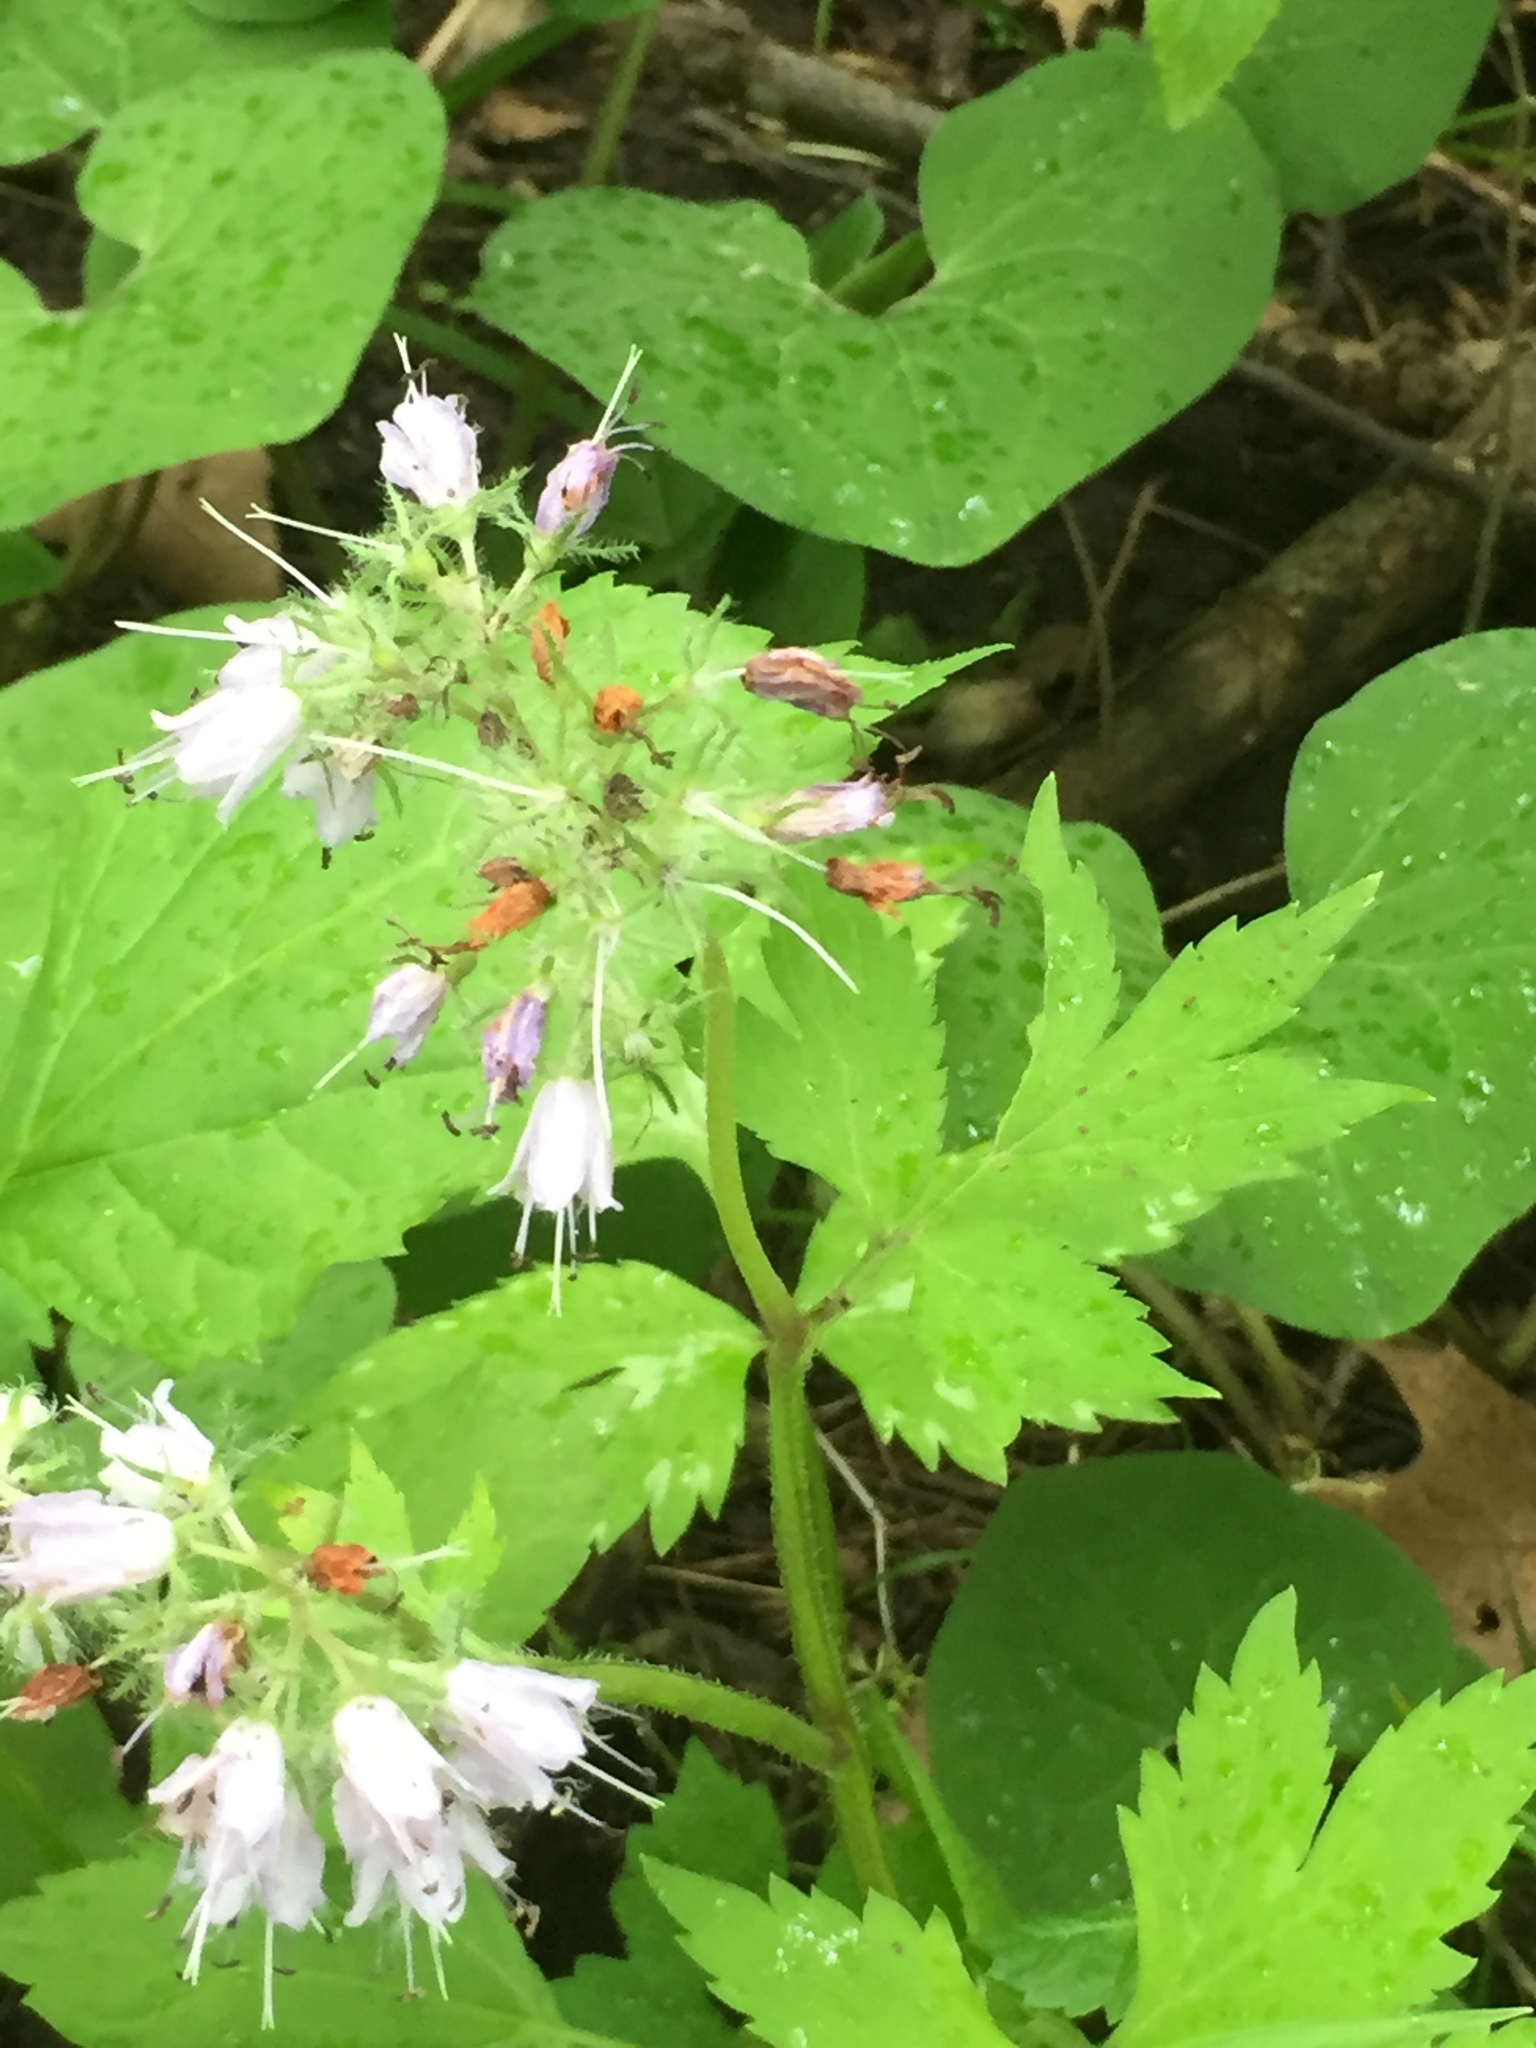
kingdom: Plantae
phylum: Tracheophyta
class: Magnoliopsida
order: Boraginales
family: Hydrophyllaceae
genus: Hydrophyllum
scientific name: Hydrophyllum virginianum
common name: Virginia waterleaf
